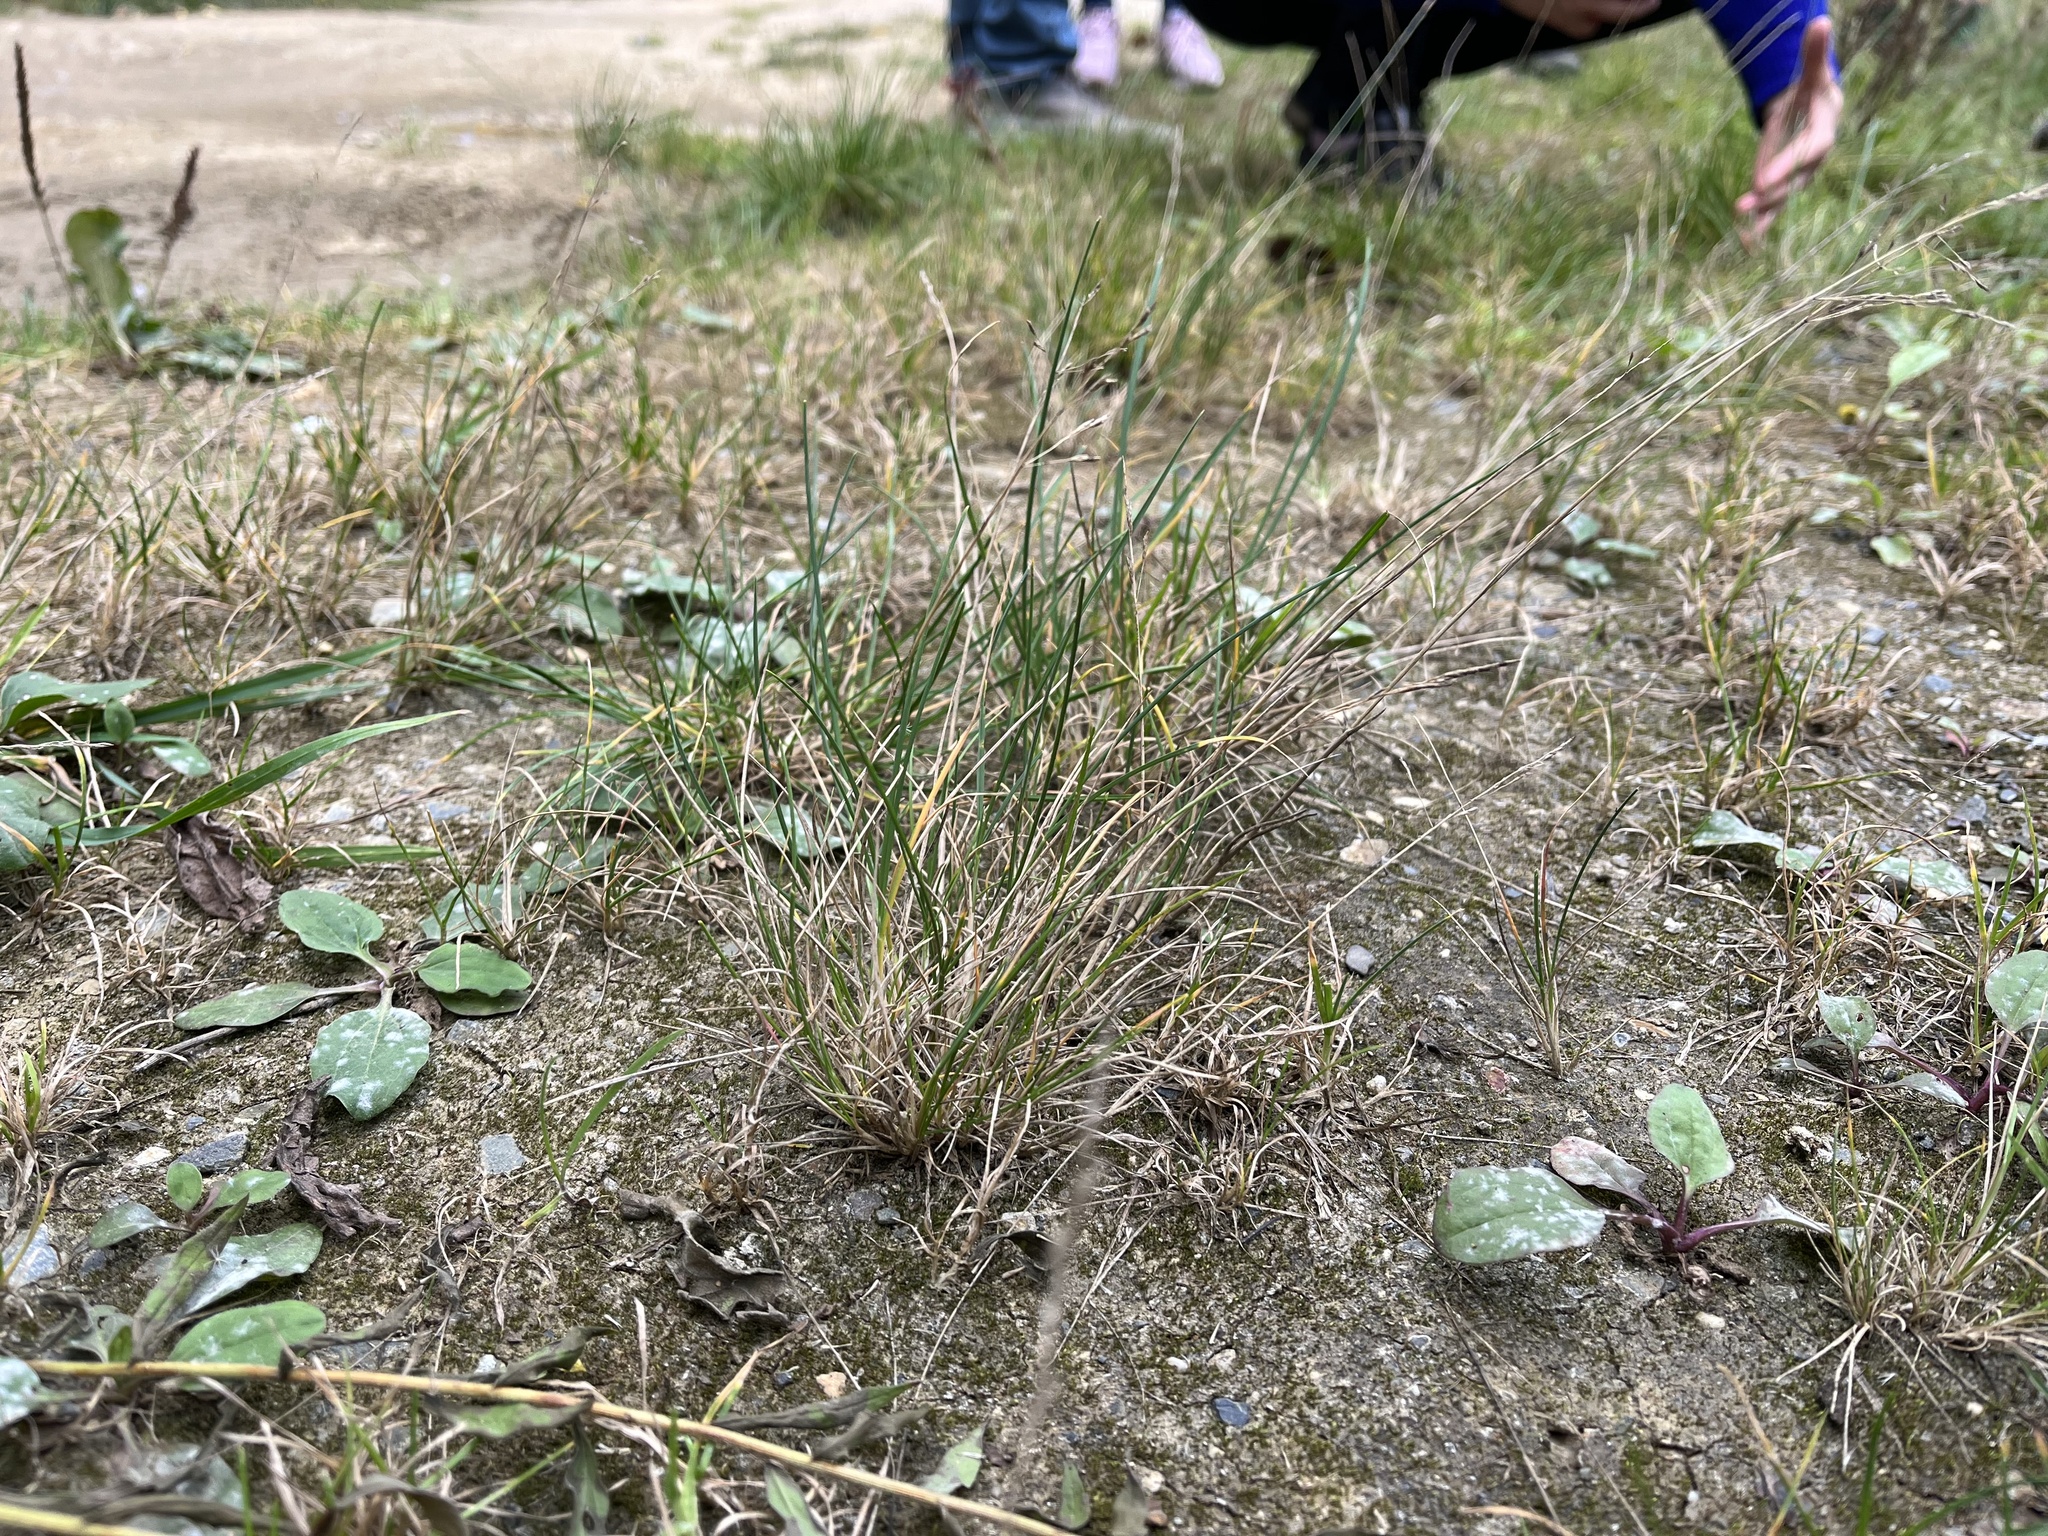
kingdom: Plantae
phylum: Tracheophyta
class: Liliopsida
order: Poales
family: Poaceae
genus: Puccinellia
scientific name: Puccinellia distans
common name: Weeping alkaligrass
